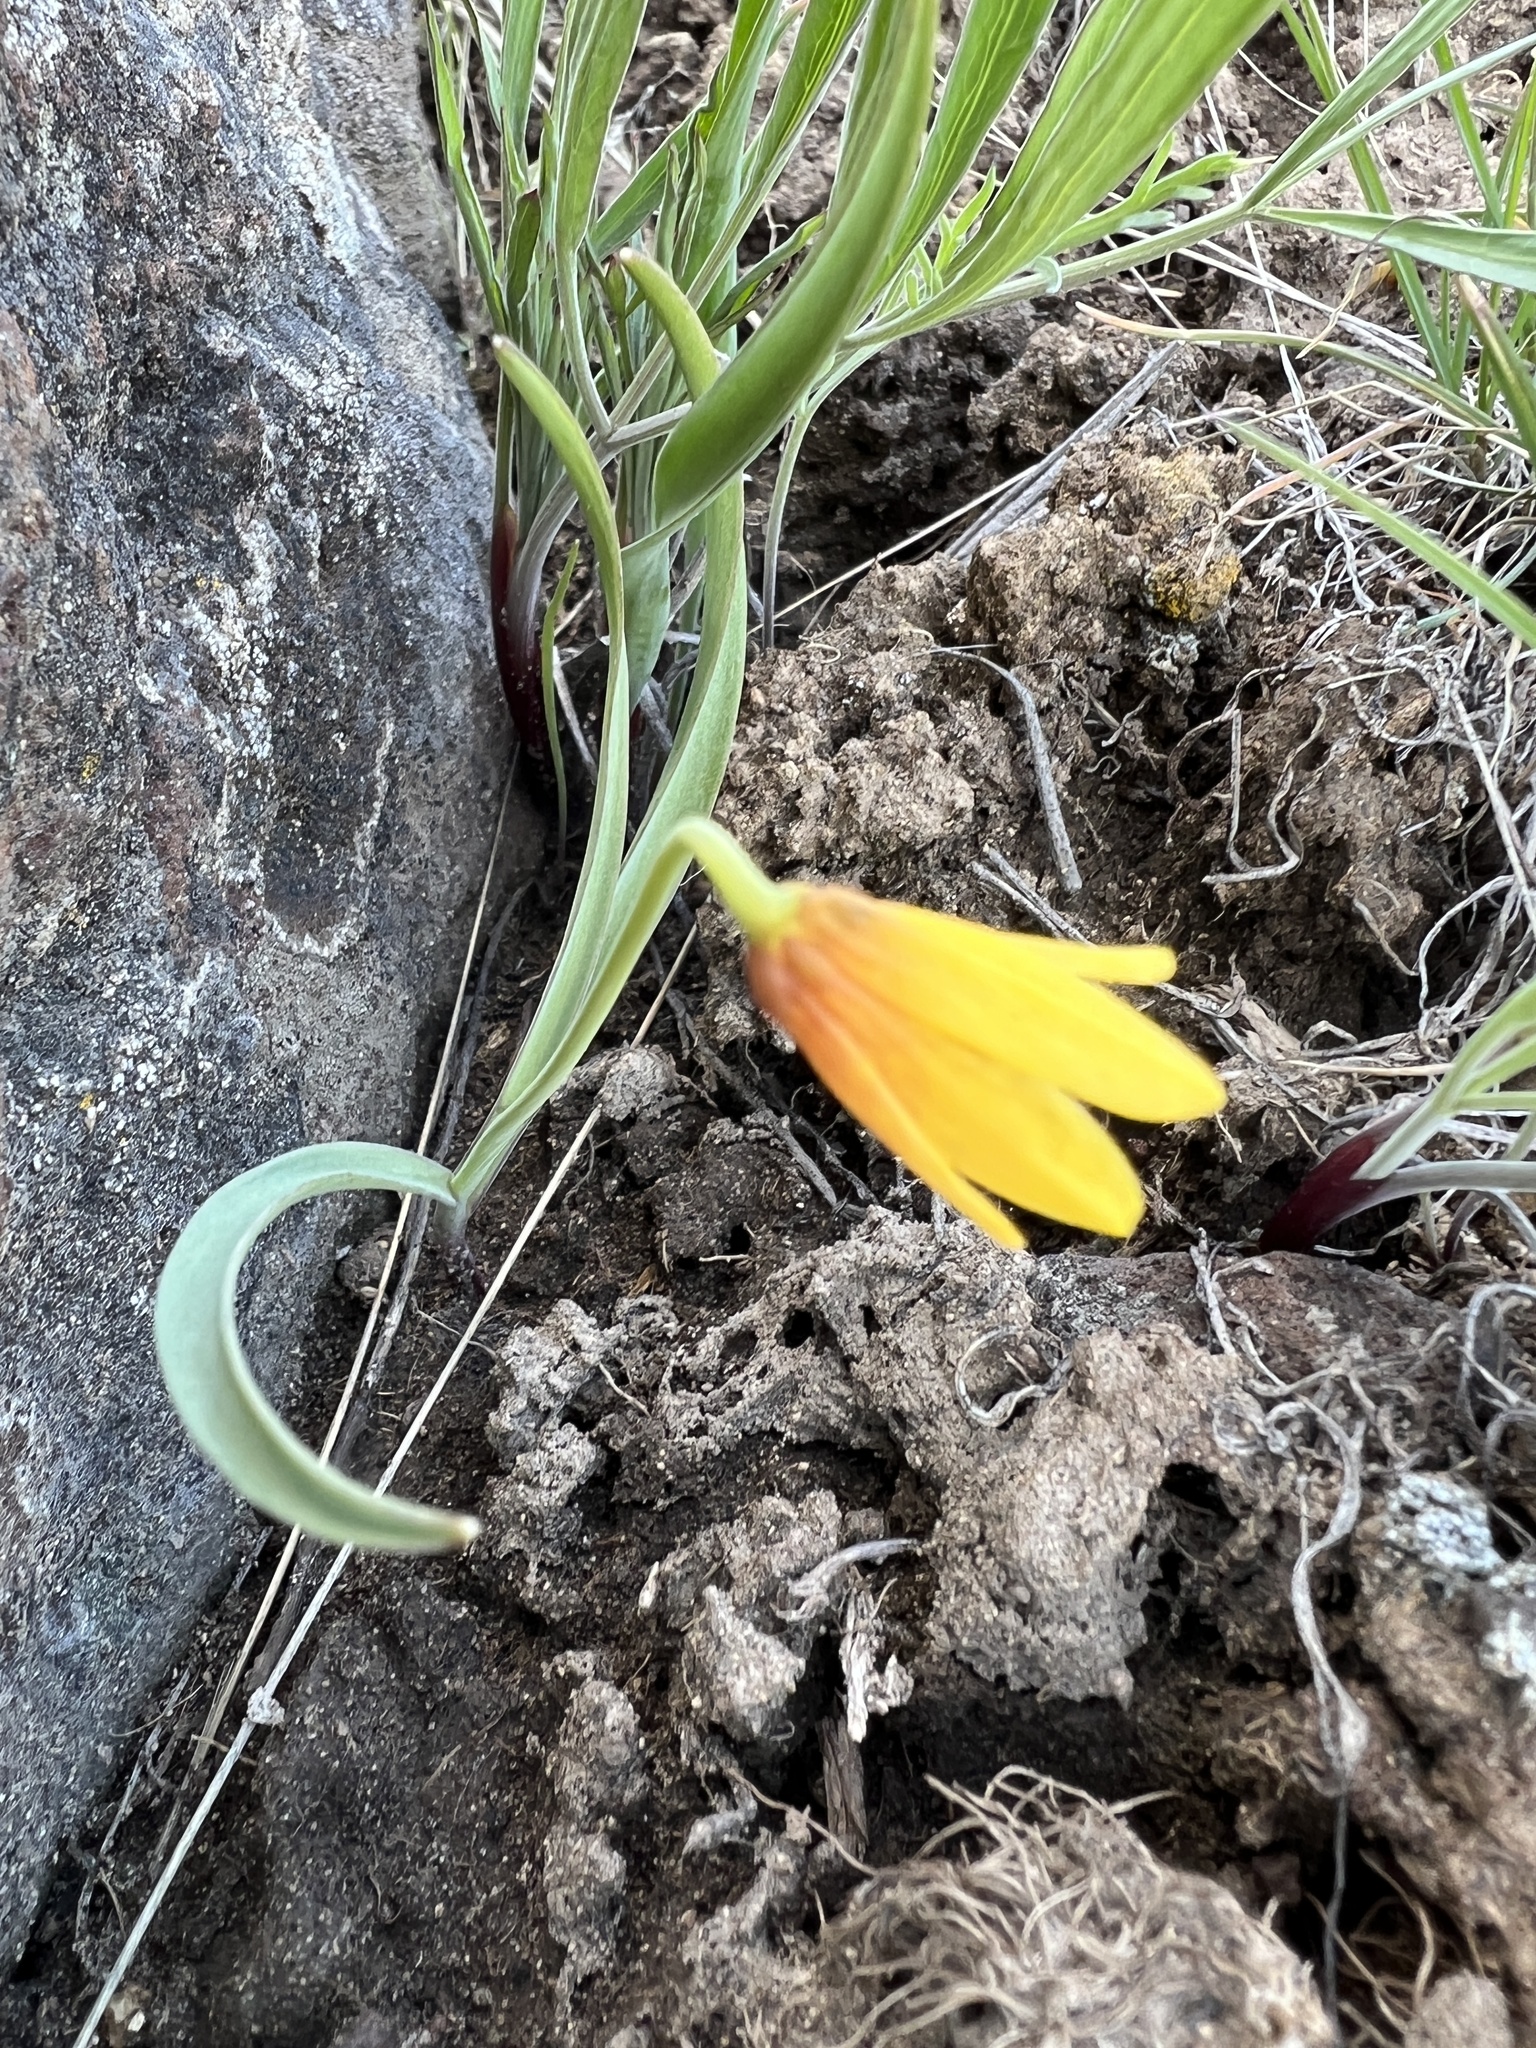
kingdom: Plantae
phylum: Tracheophyta
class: Liliopsida
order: Liliales
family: Liliaceae
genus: Fritillaria
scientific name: Fritillaria pudica
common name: Yellow fritillary
